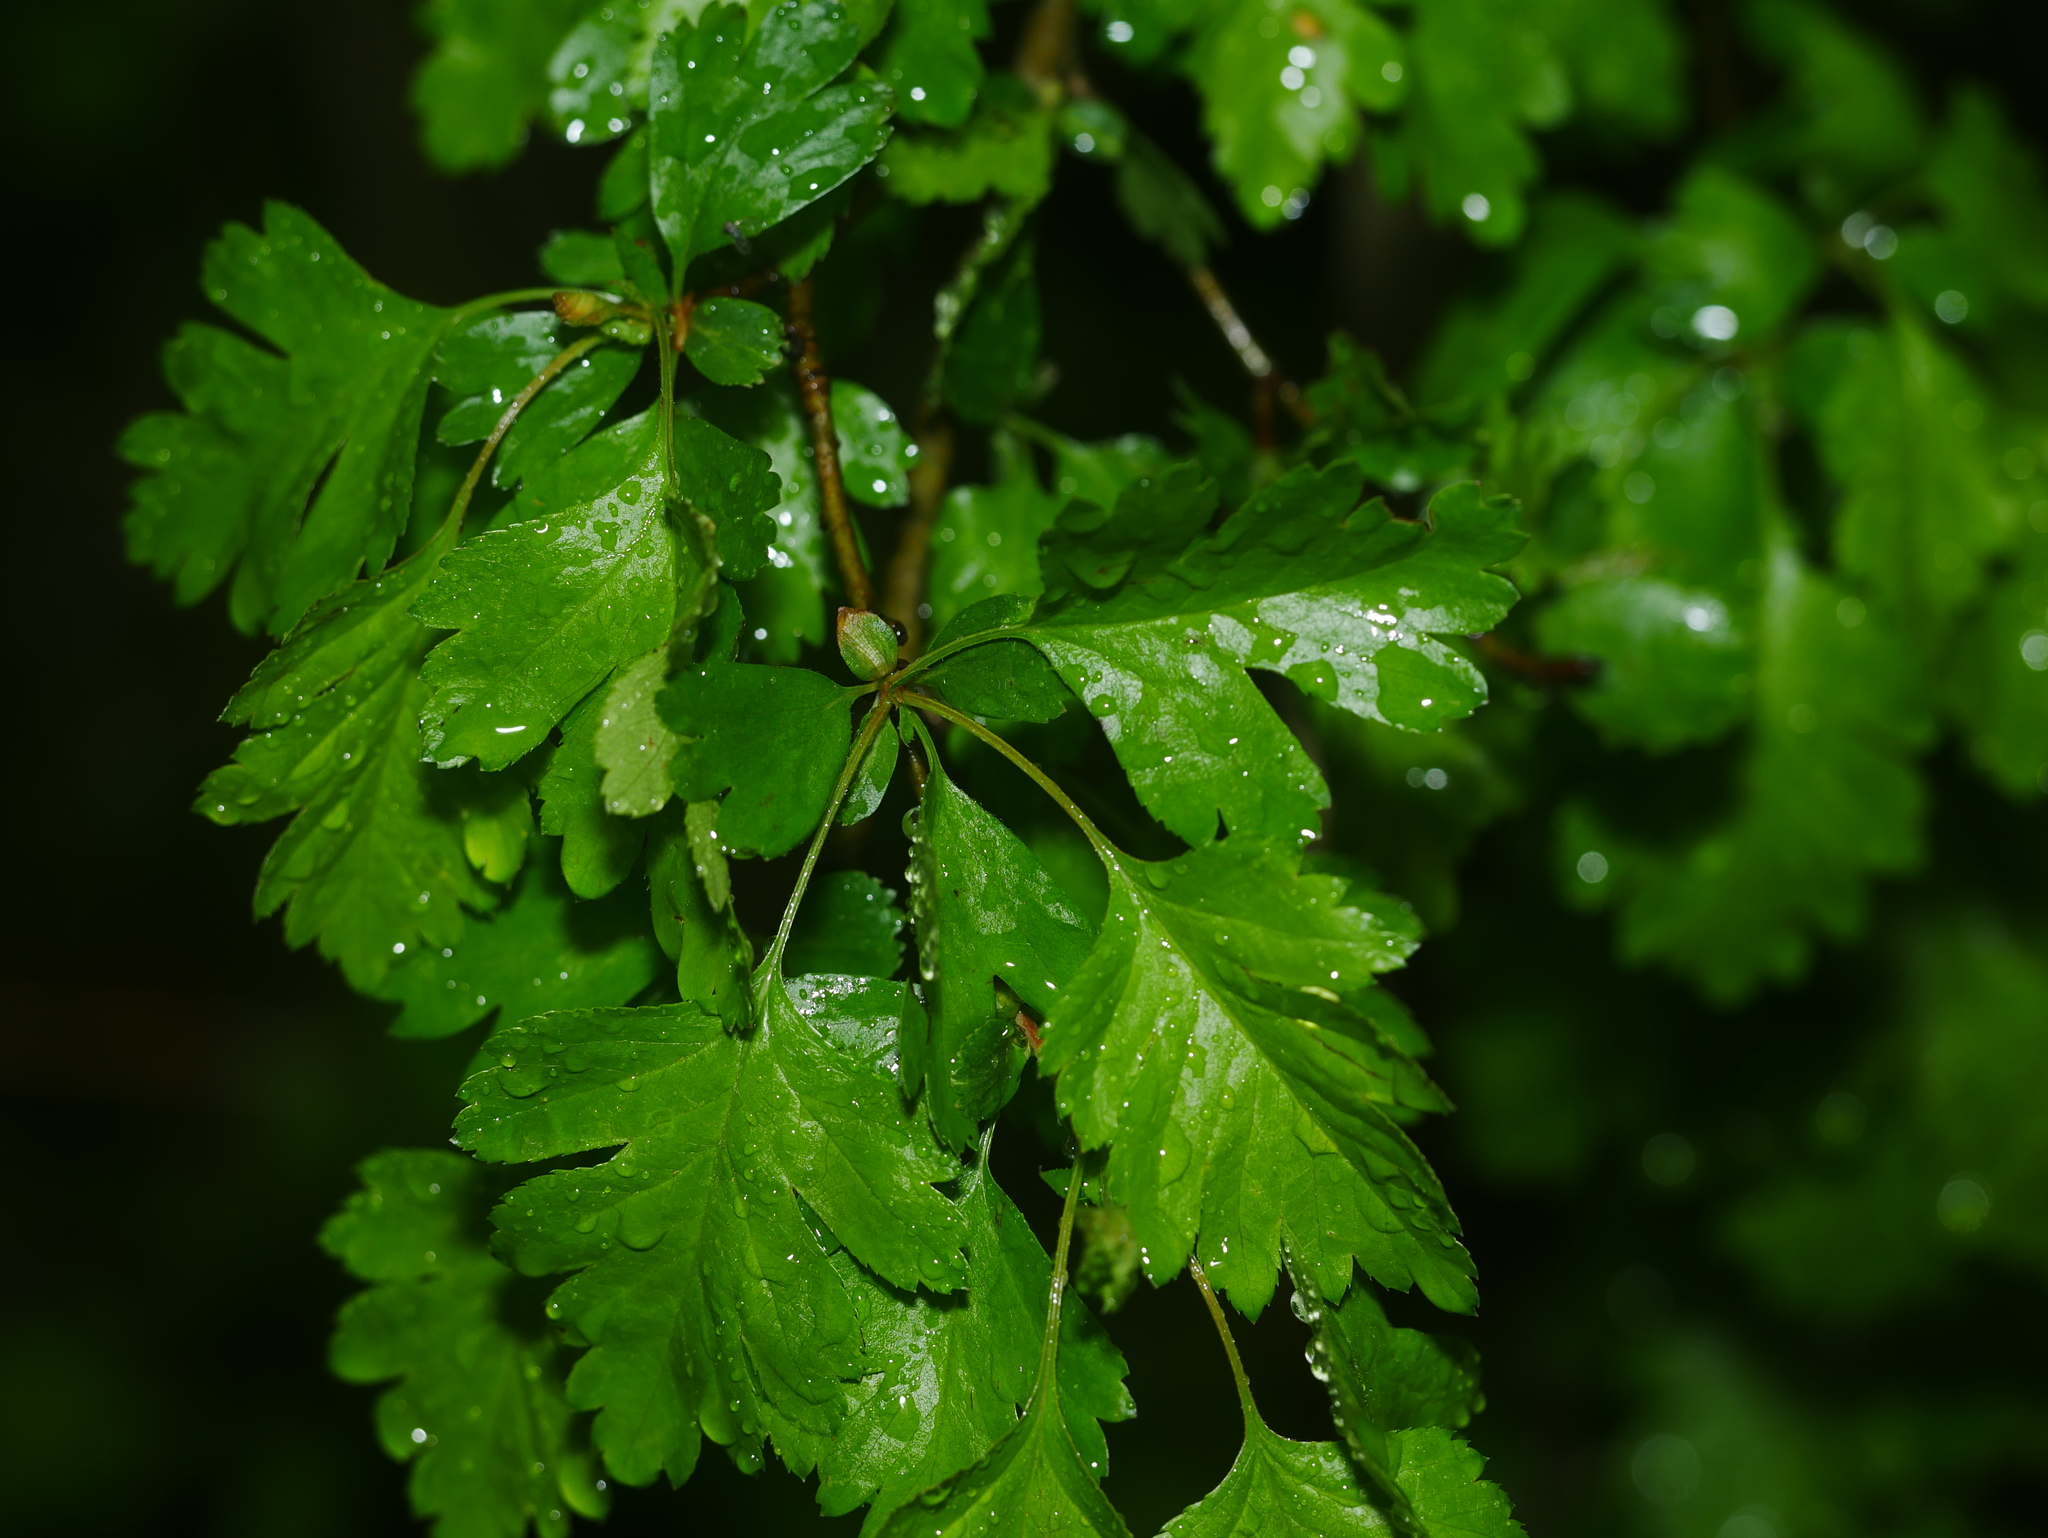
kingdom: Plantae
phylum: Tracheophyta
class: Magnoliopsida
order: Rosales
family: Rosaceae
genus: Crataegus
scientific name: Crataegus monogyna
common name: Hawthorn
